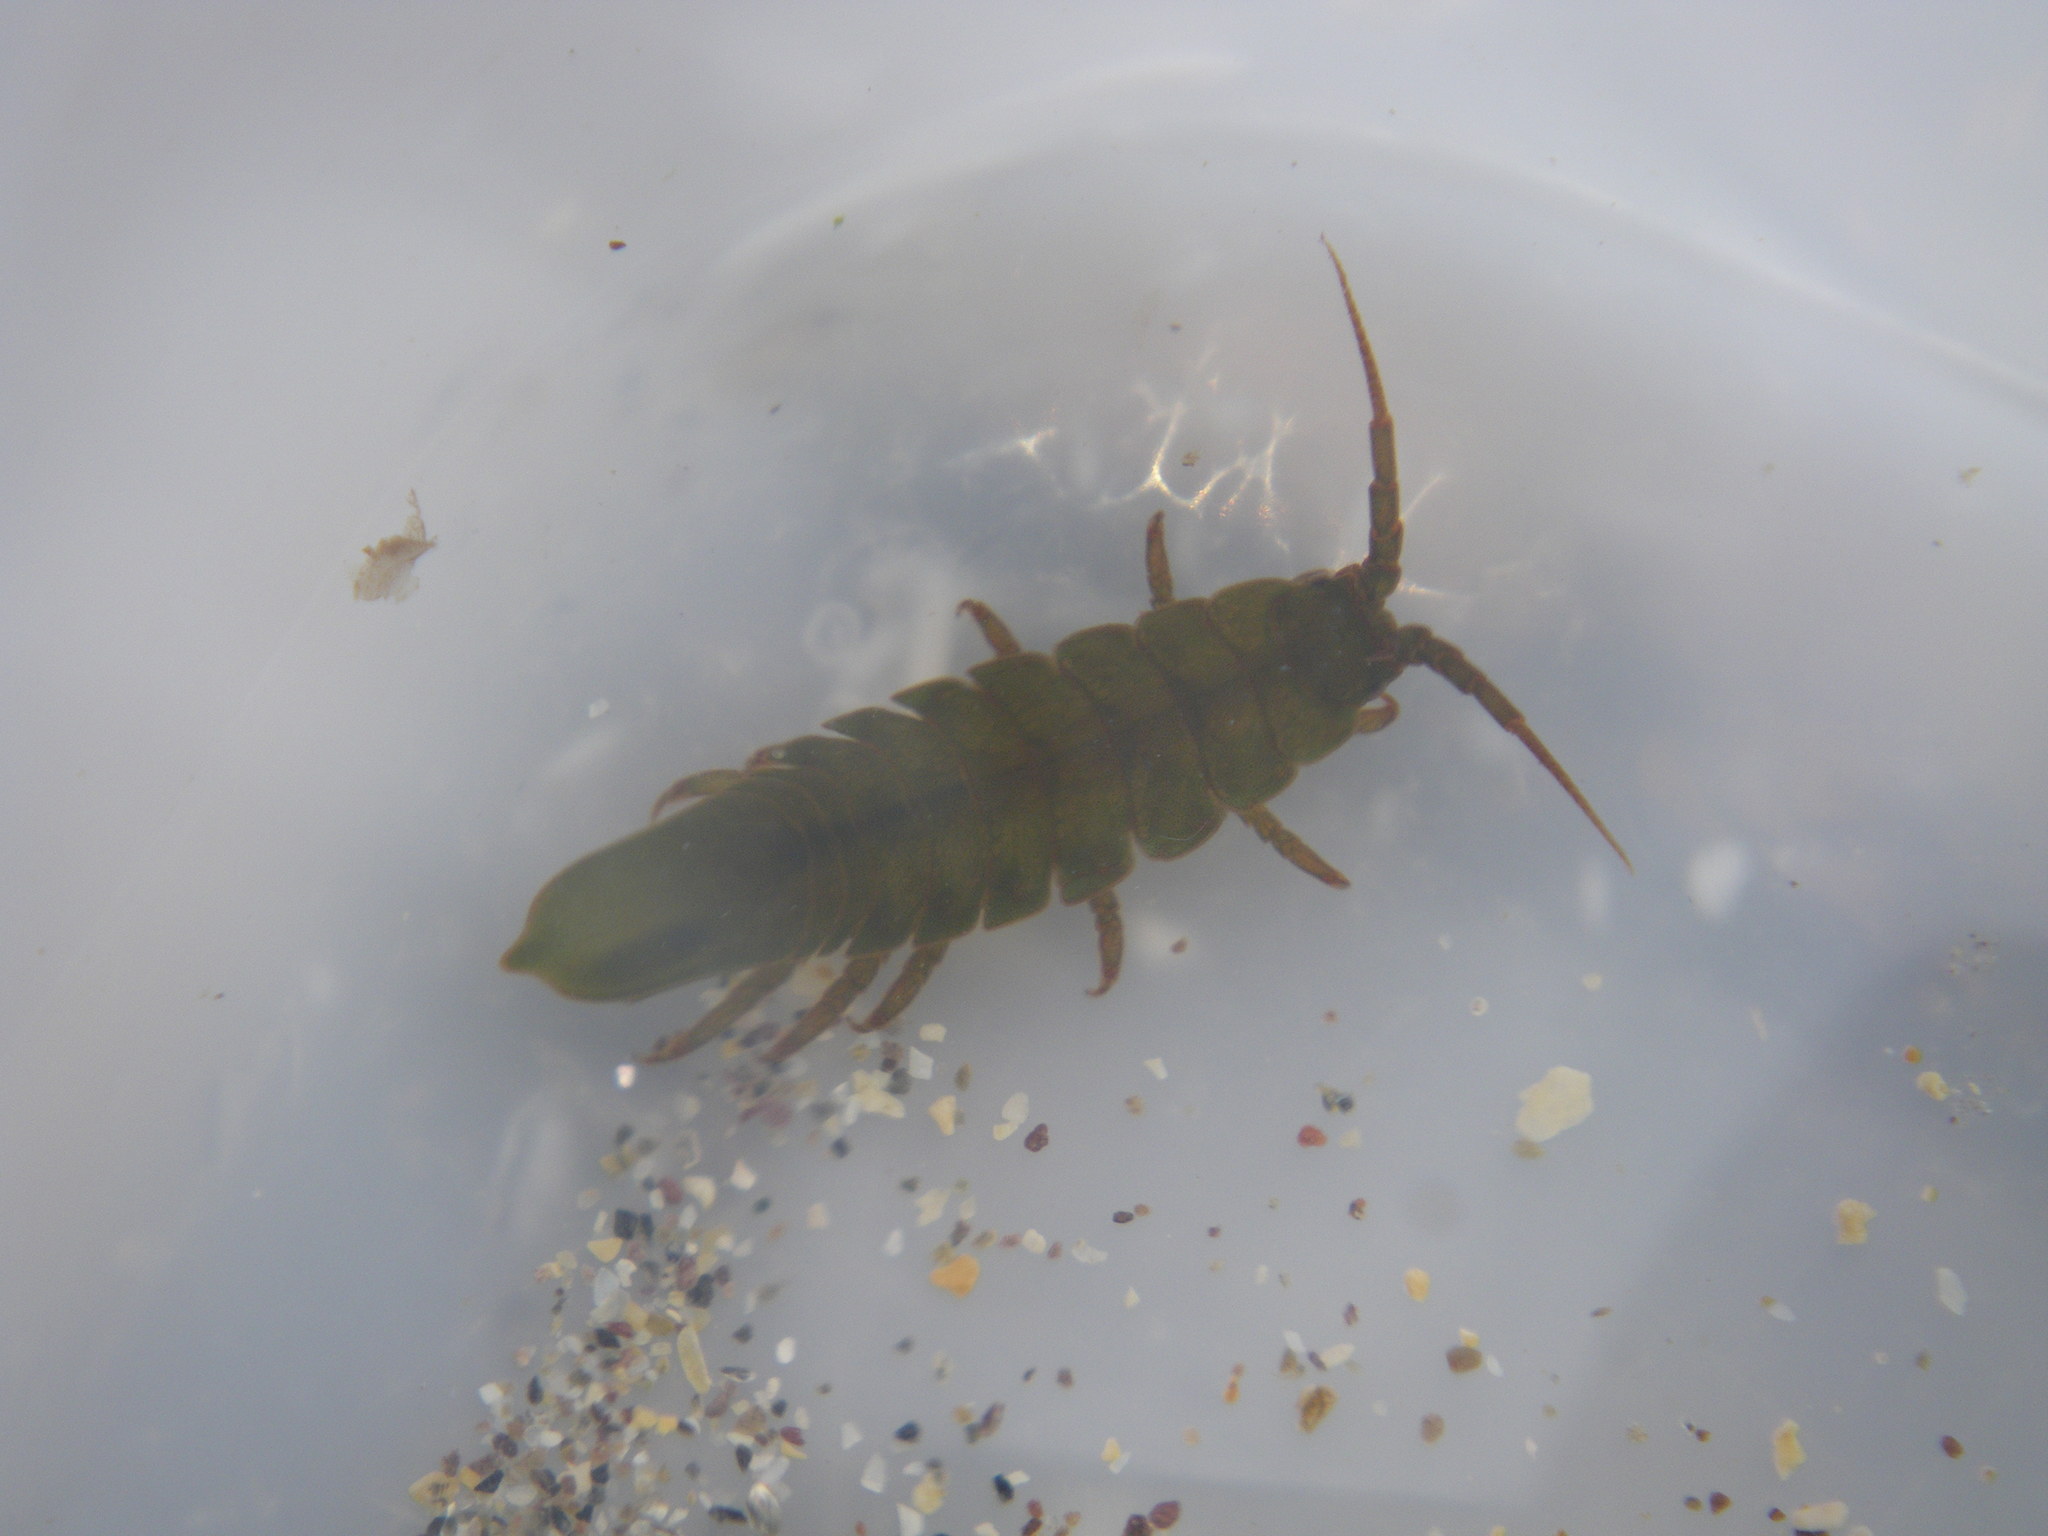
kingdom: Animalia
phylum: Arthropoda
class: Malacostraca
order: Isopoda
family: Idoteidae
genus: Idotea
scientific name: Idotea granulosa
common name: Granular marine isopod
